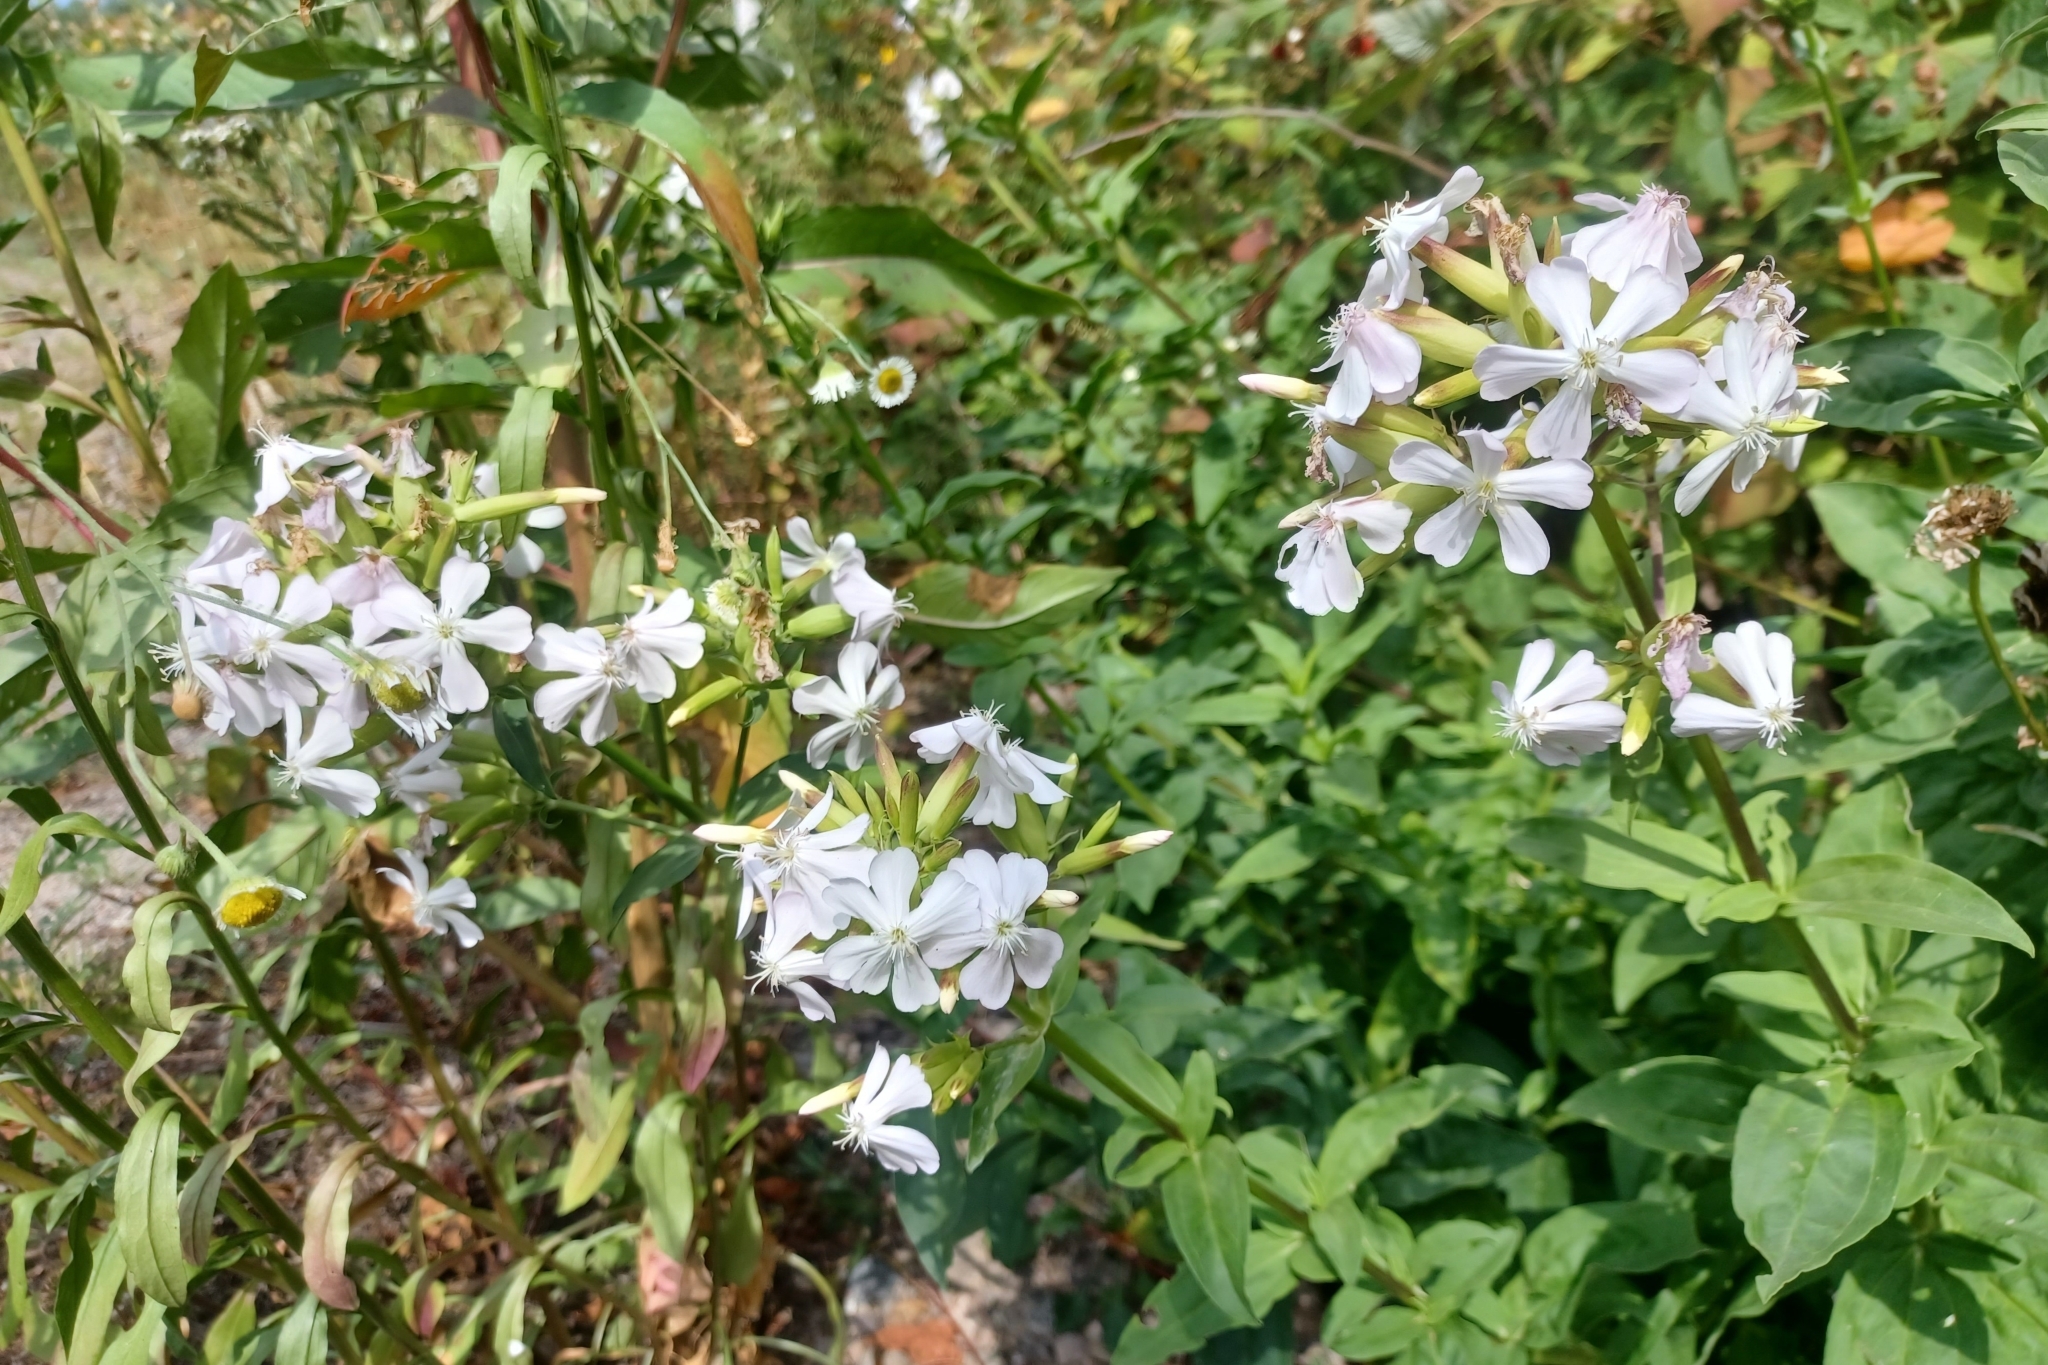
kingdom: Plantae
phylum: Tracheophyta
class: Magnoliopsida
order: Caryophyllales
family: Caryophyllaceae
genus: Saponaria
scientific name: Saponaria officinalis
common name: Soapwort
